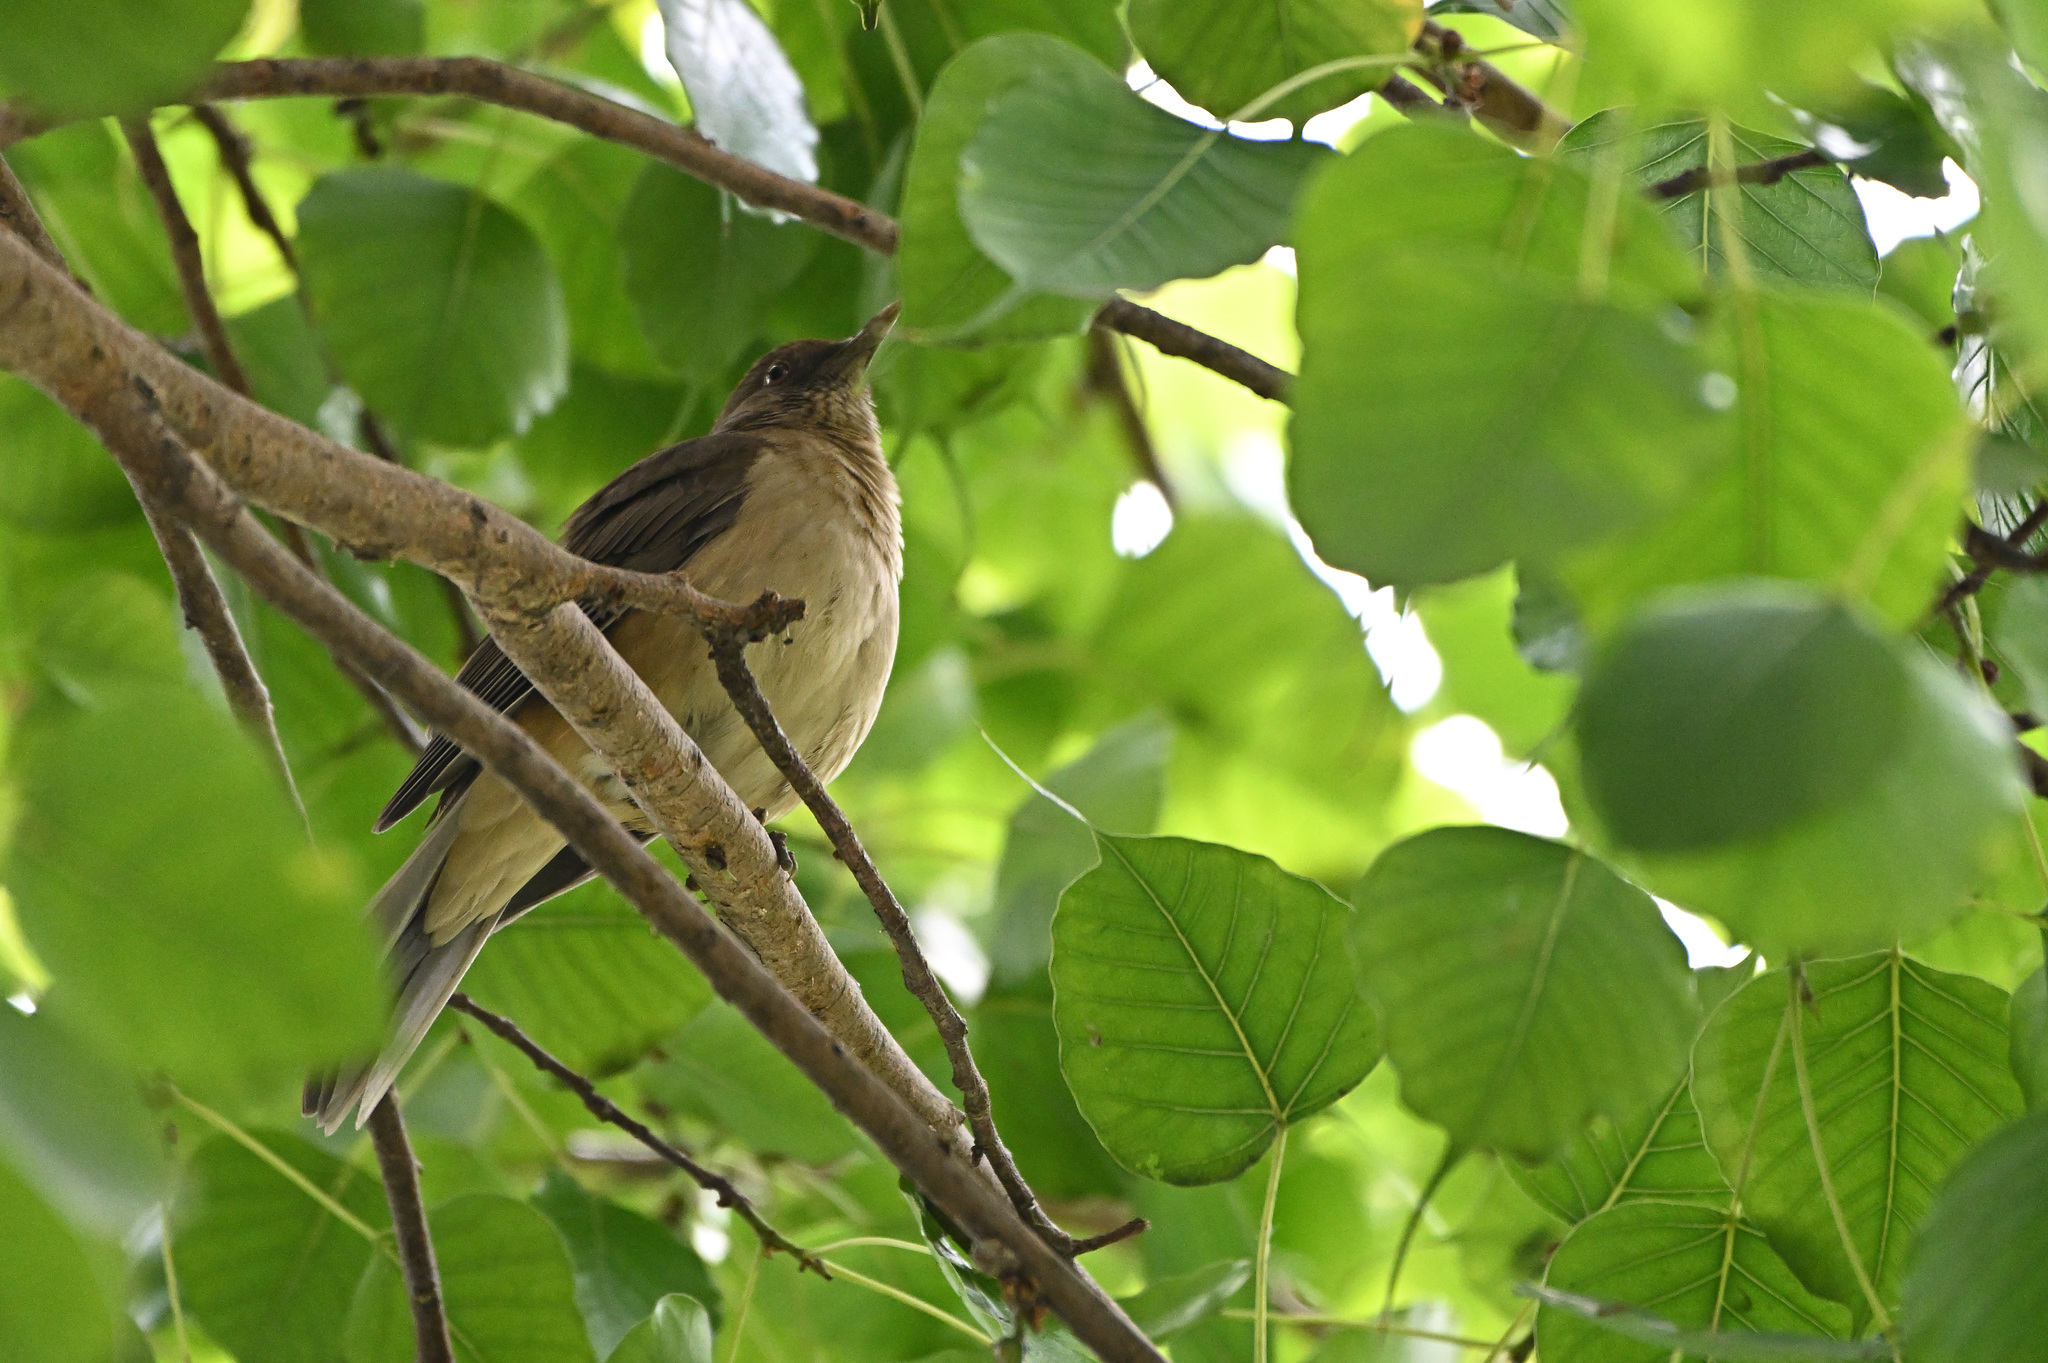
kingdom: Animalia
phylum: Chordata
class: Aves
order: Passeriformes
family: Turdidae
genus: Turdus
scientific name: Turdus grayi
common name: Clay-colored thrush
